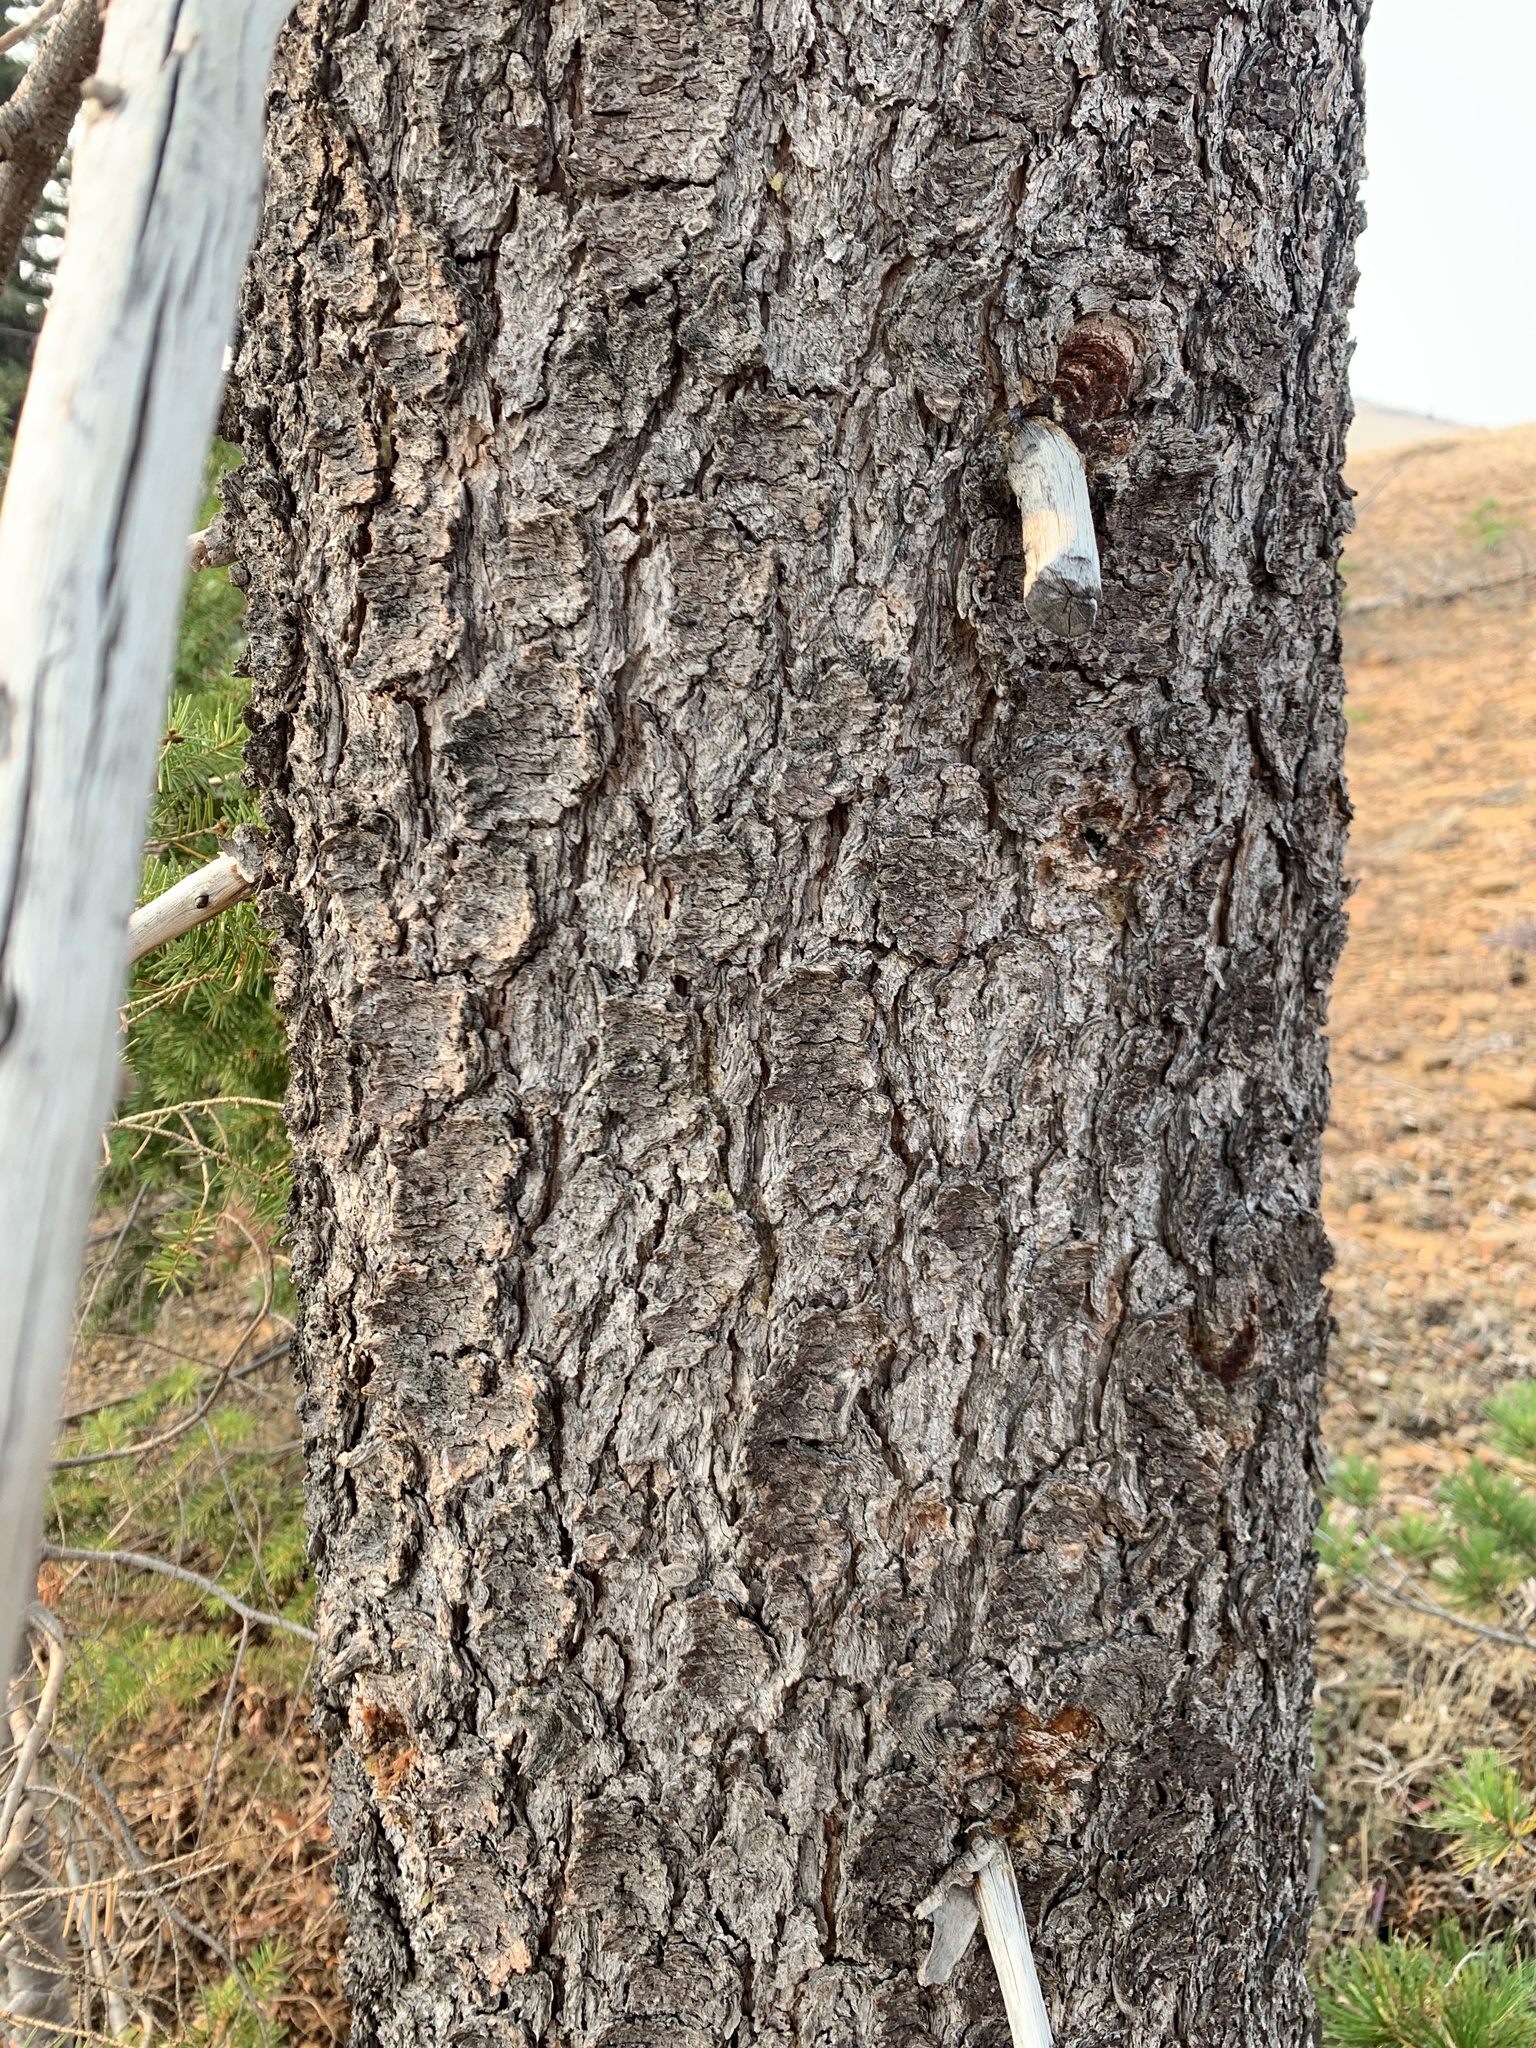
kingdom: Plantae
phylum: Tracheophyta
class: Pinopsida
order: Pinales
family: Pinaceae
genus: Pinus
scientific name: Pinus contorta
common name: Lodgepole pine
